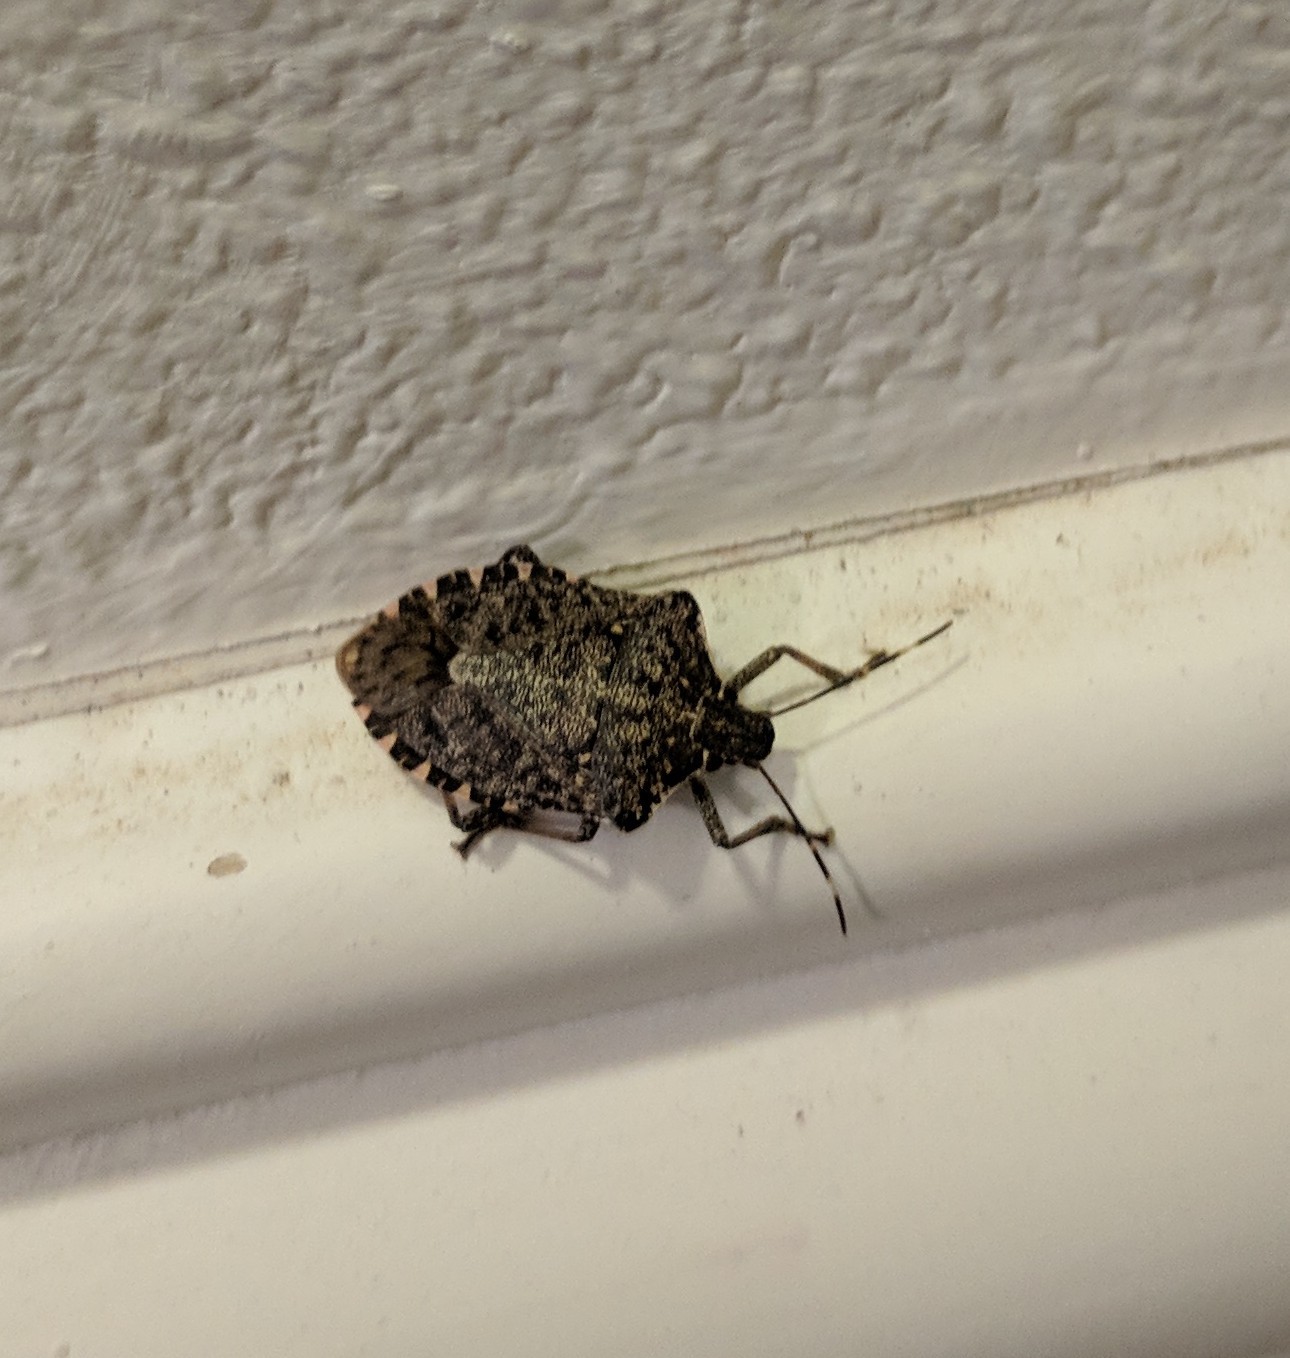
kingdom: Animalia
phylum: Arthropoda
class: Insecta
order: Hemiptera
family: Pentatomidae
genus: Halyomorpha
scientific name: Halyomorpha halys
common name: Brown marmorated stink bug
